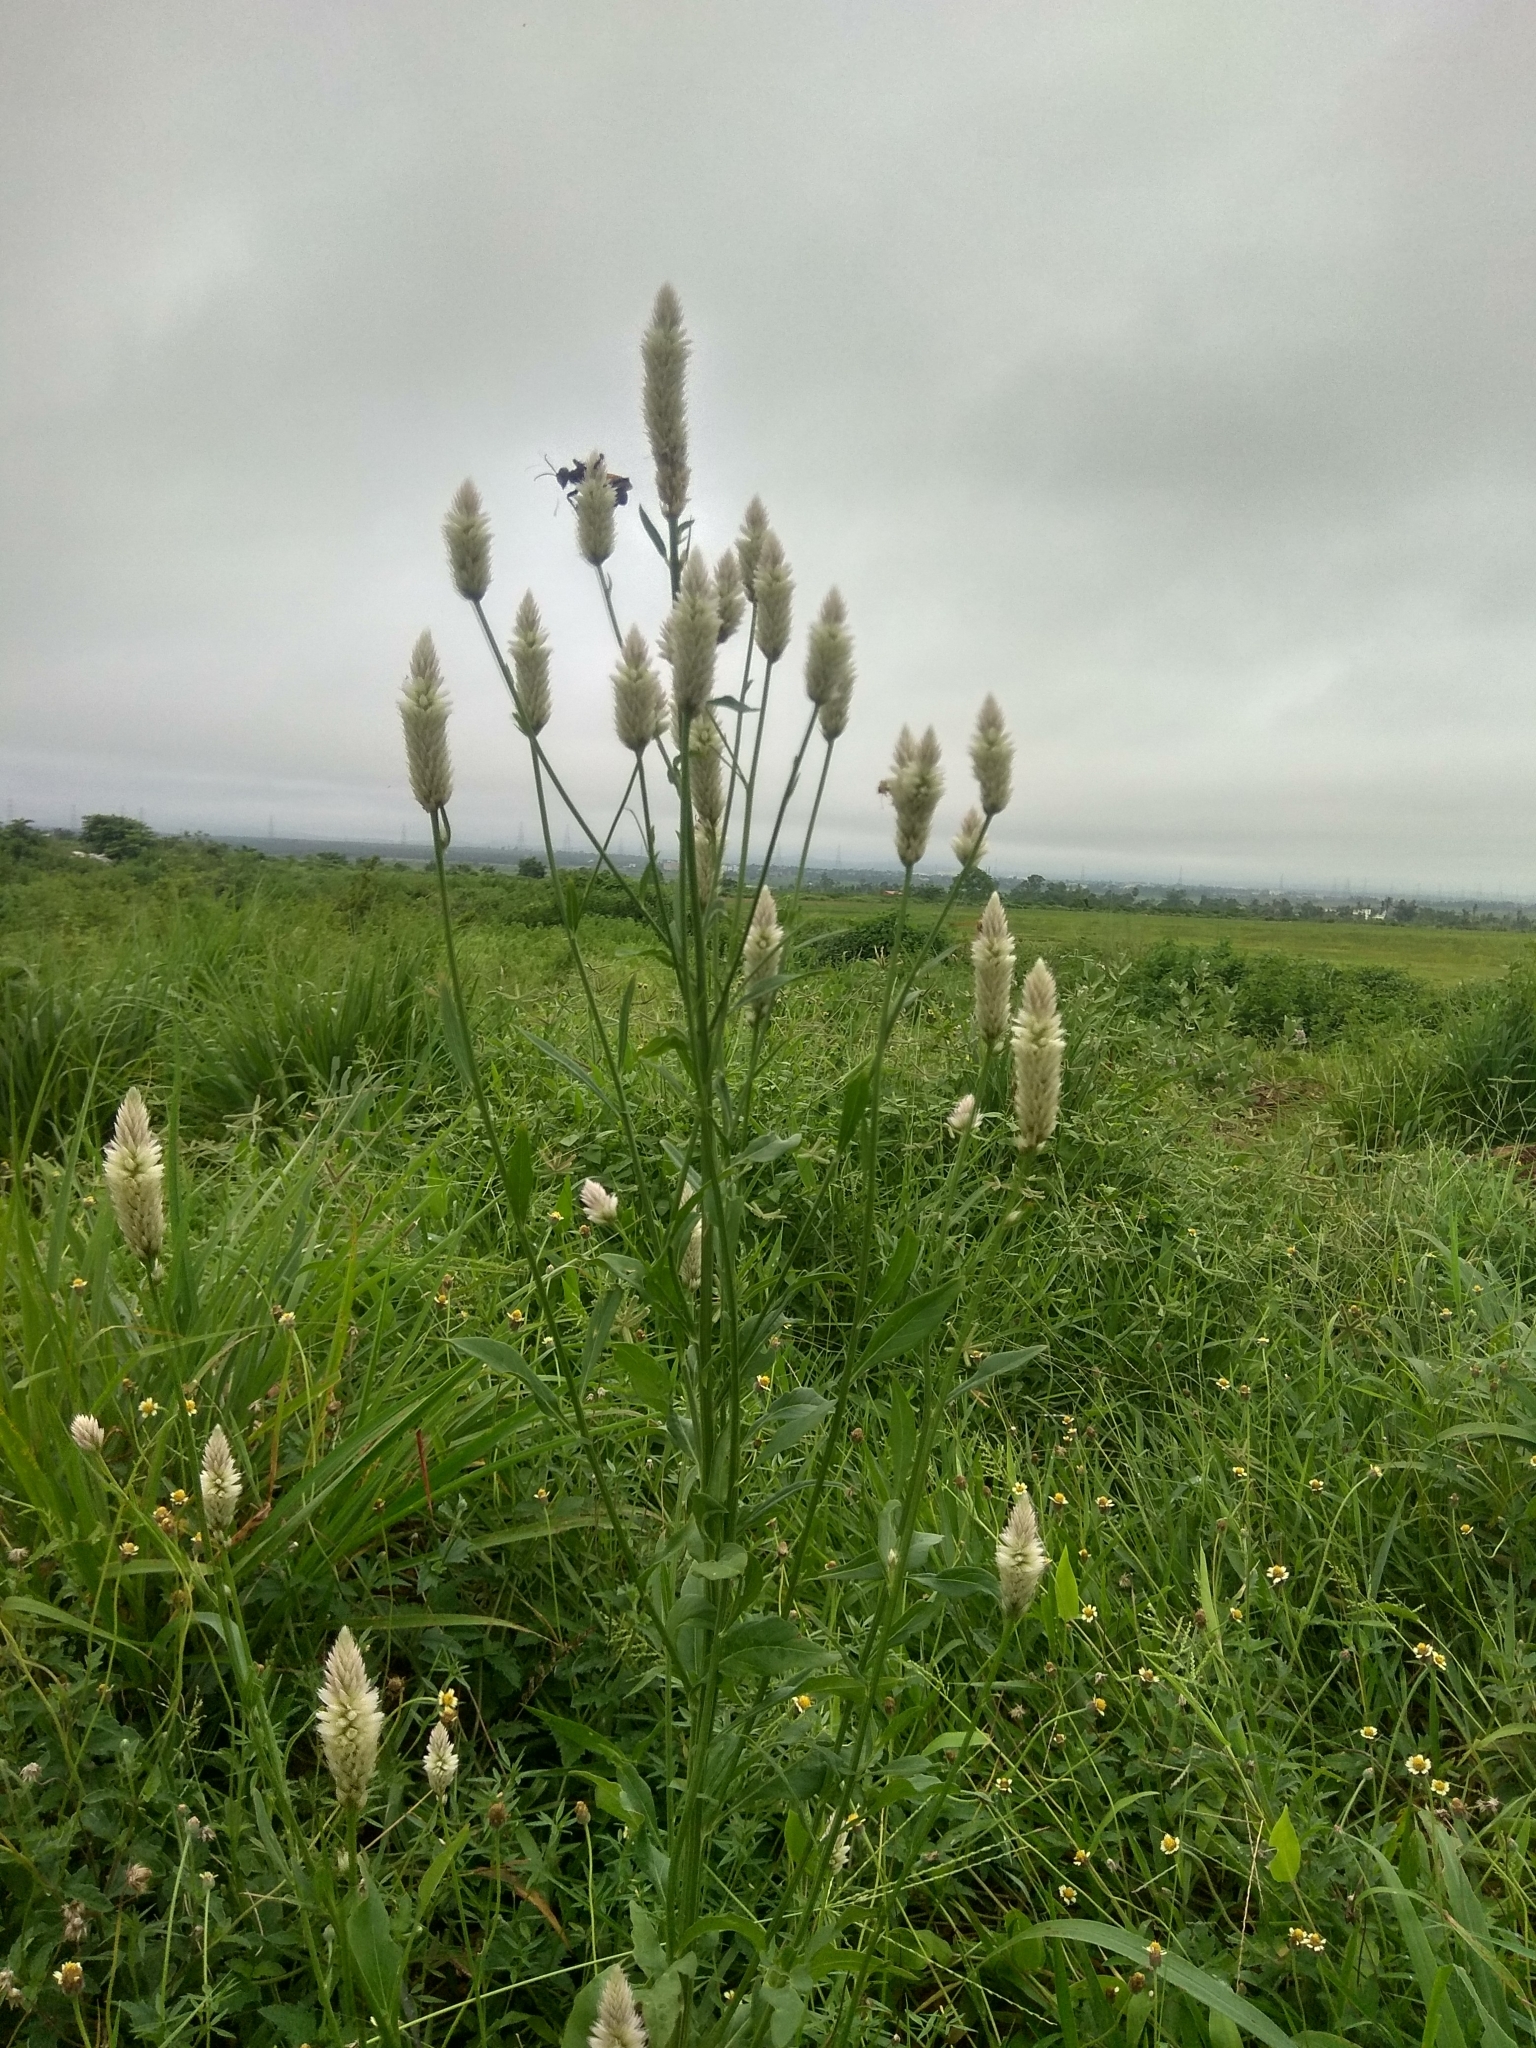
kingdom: Plantae
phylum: Tracheophyta
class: Magnoliopsida
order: Caryophyllales
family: Amaranthaceae
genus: Celosia
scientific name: Celosia argentea
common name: Feather cockscomb
